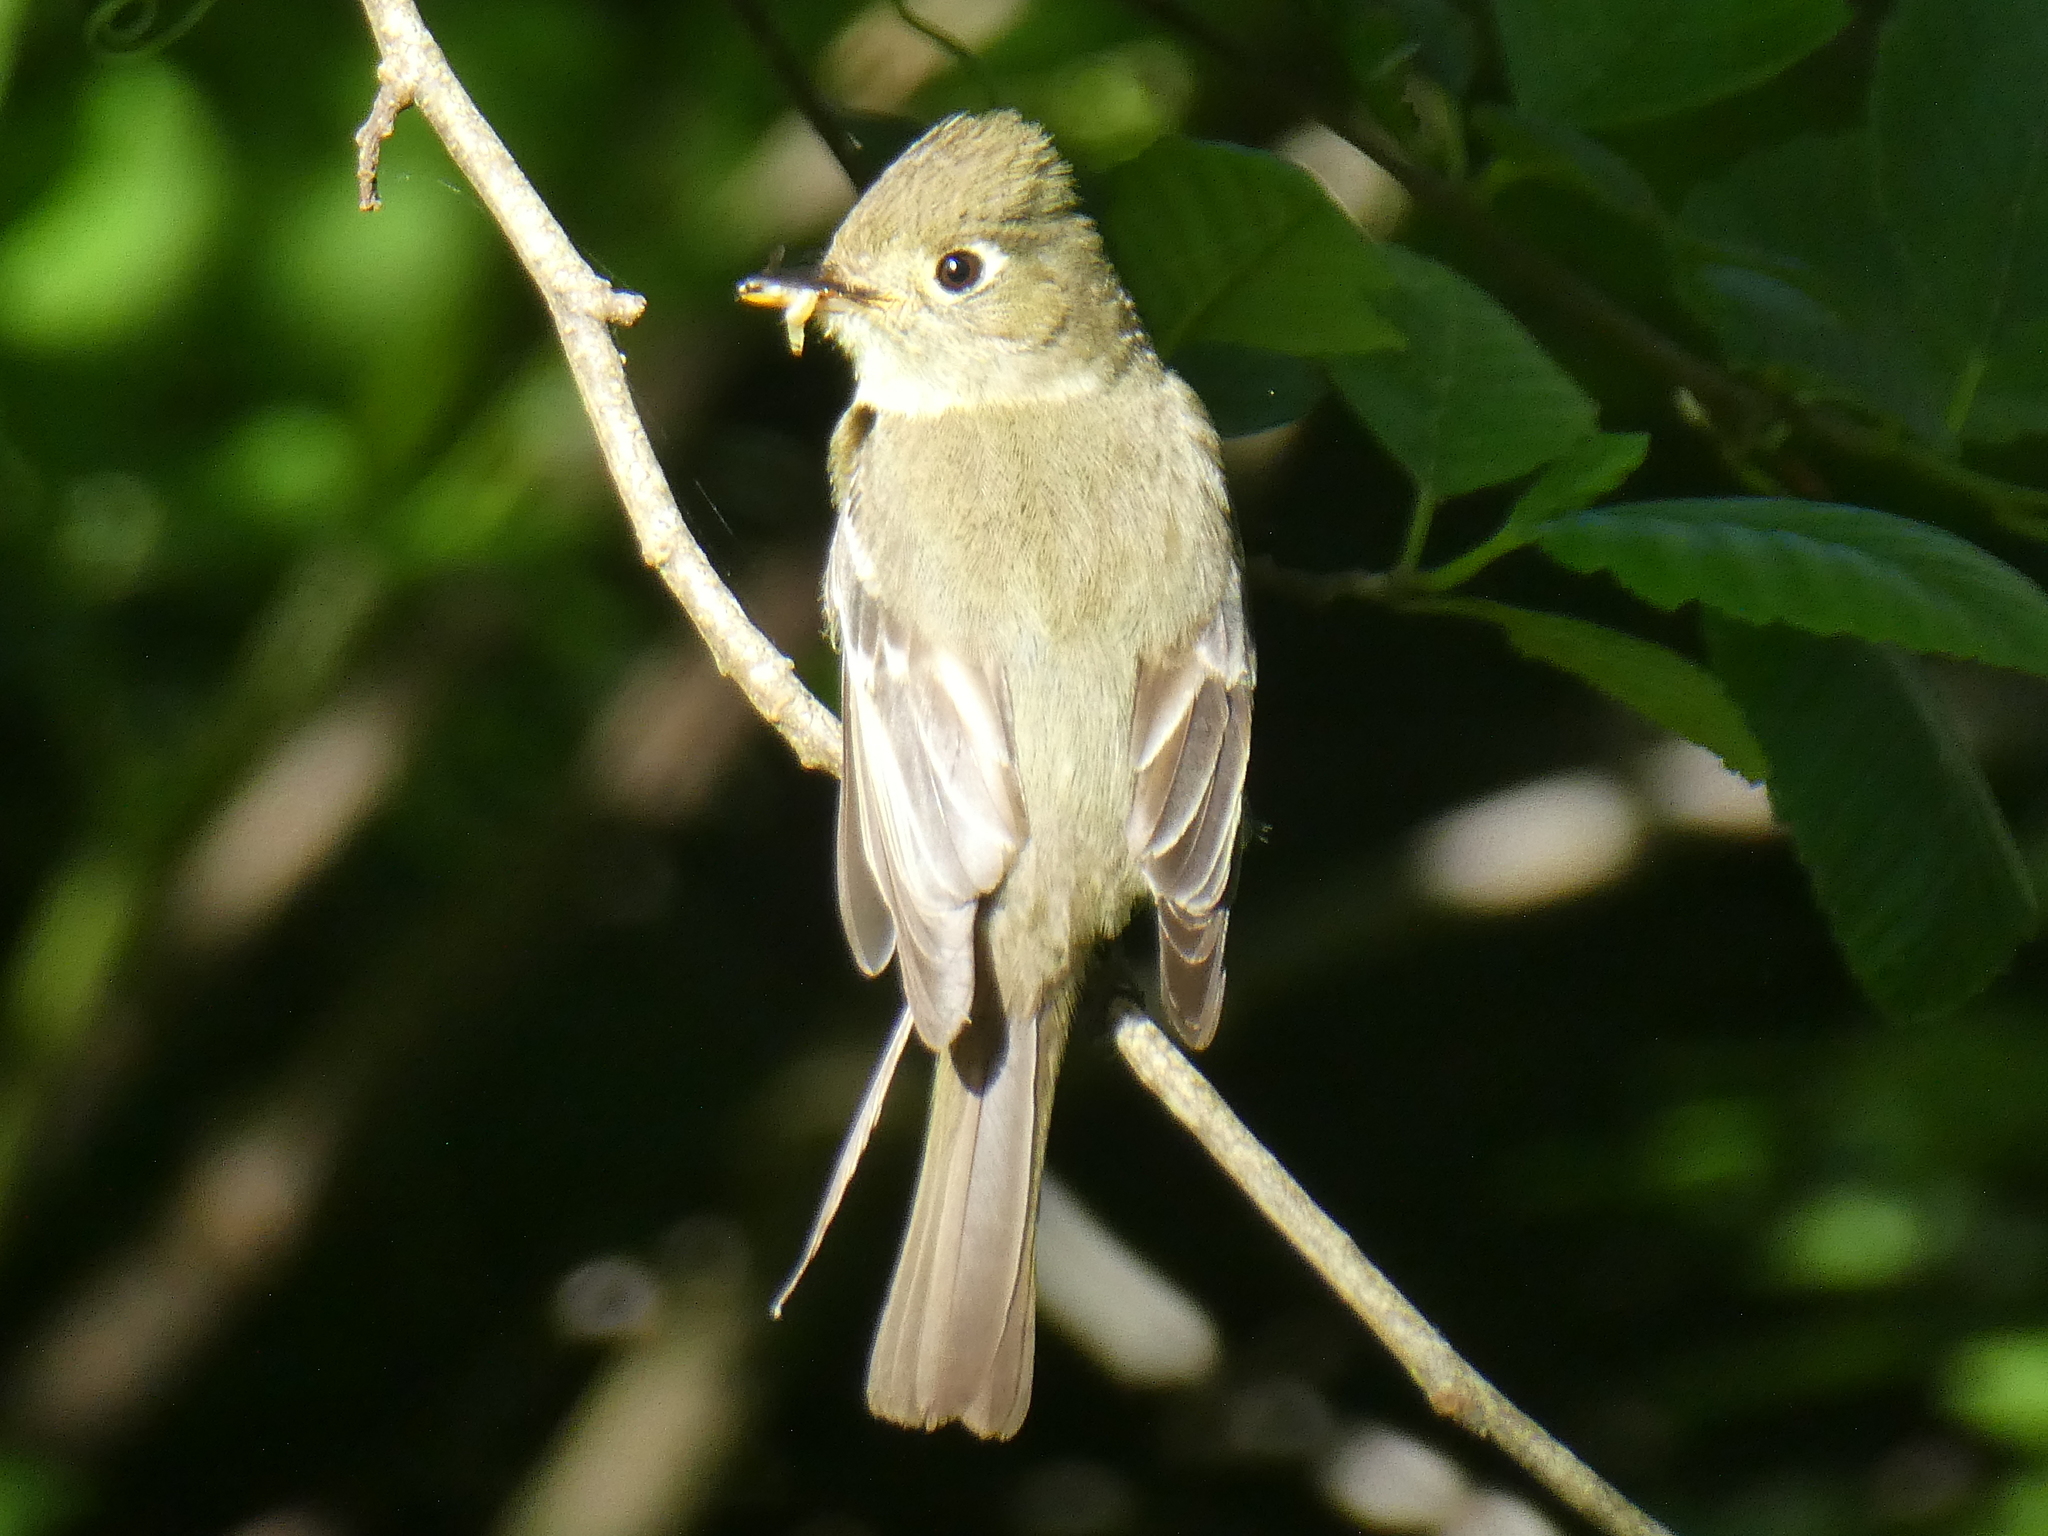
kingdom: Animalia
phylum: Chordata
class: Aves
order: Passeriformes
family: Tyrannidae
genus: Empidonax
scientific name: Empidonax difficilis
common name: Pacific-slope flycatcher
